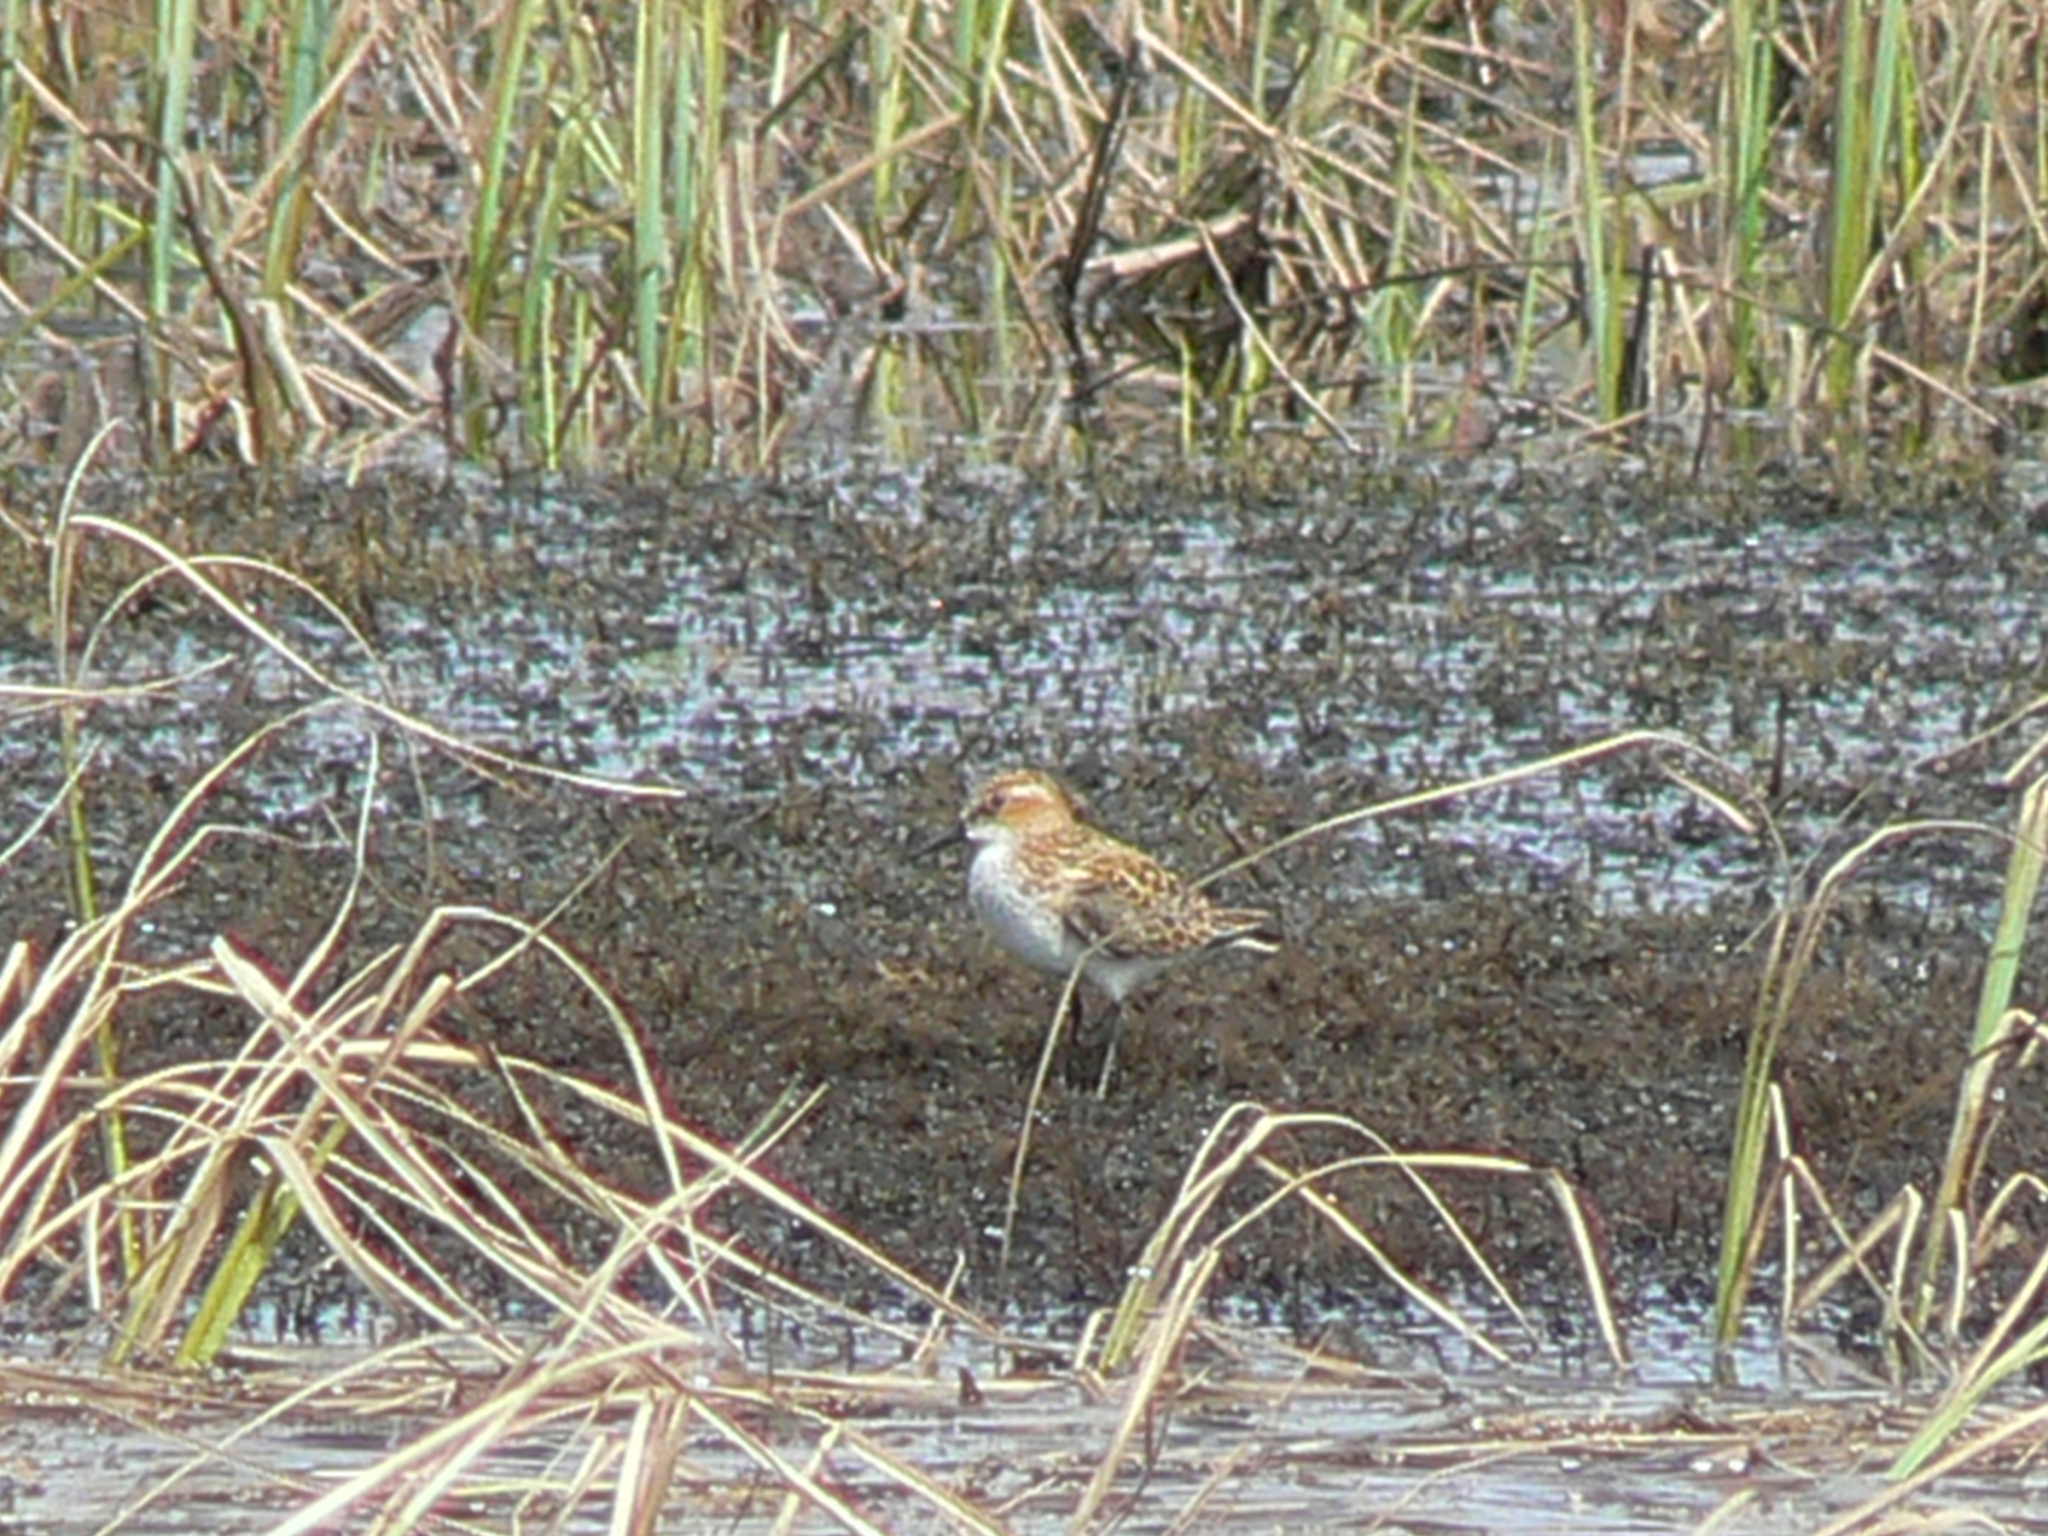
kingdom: Animalia
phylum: Chordata
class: Aves
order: Charadriiformes
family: Scolopacidae
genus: Calidris
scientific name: Calidris minuta
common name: Little stint
